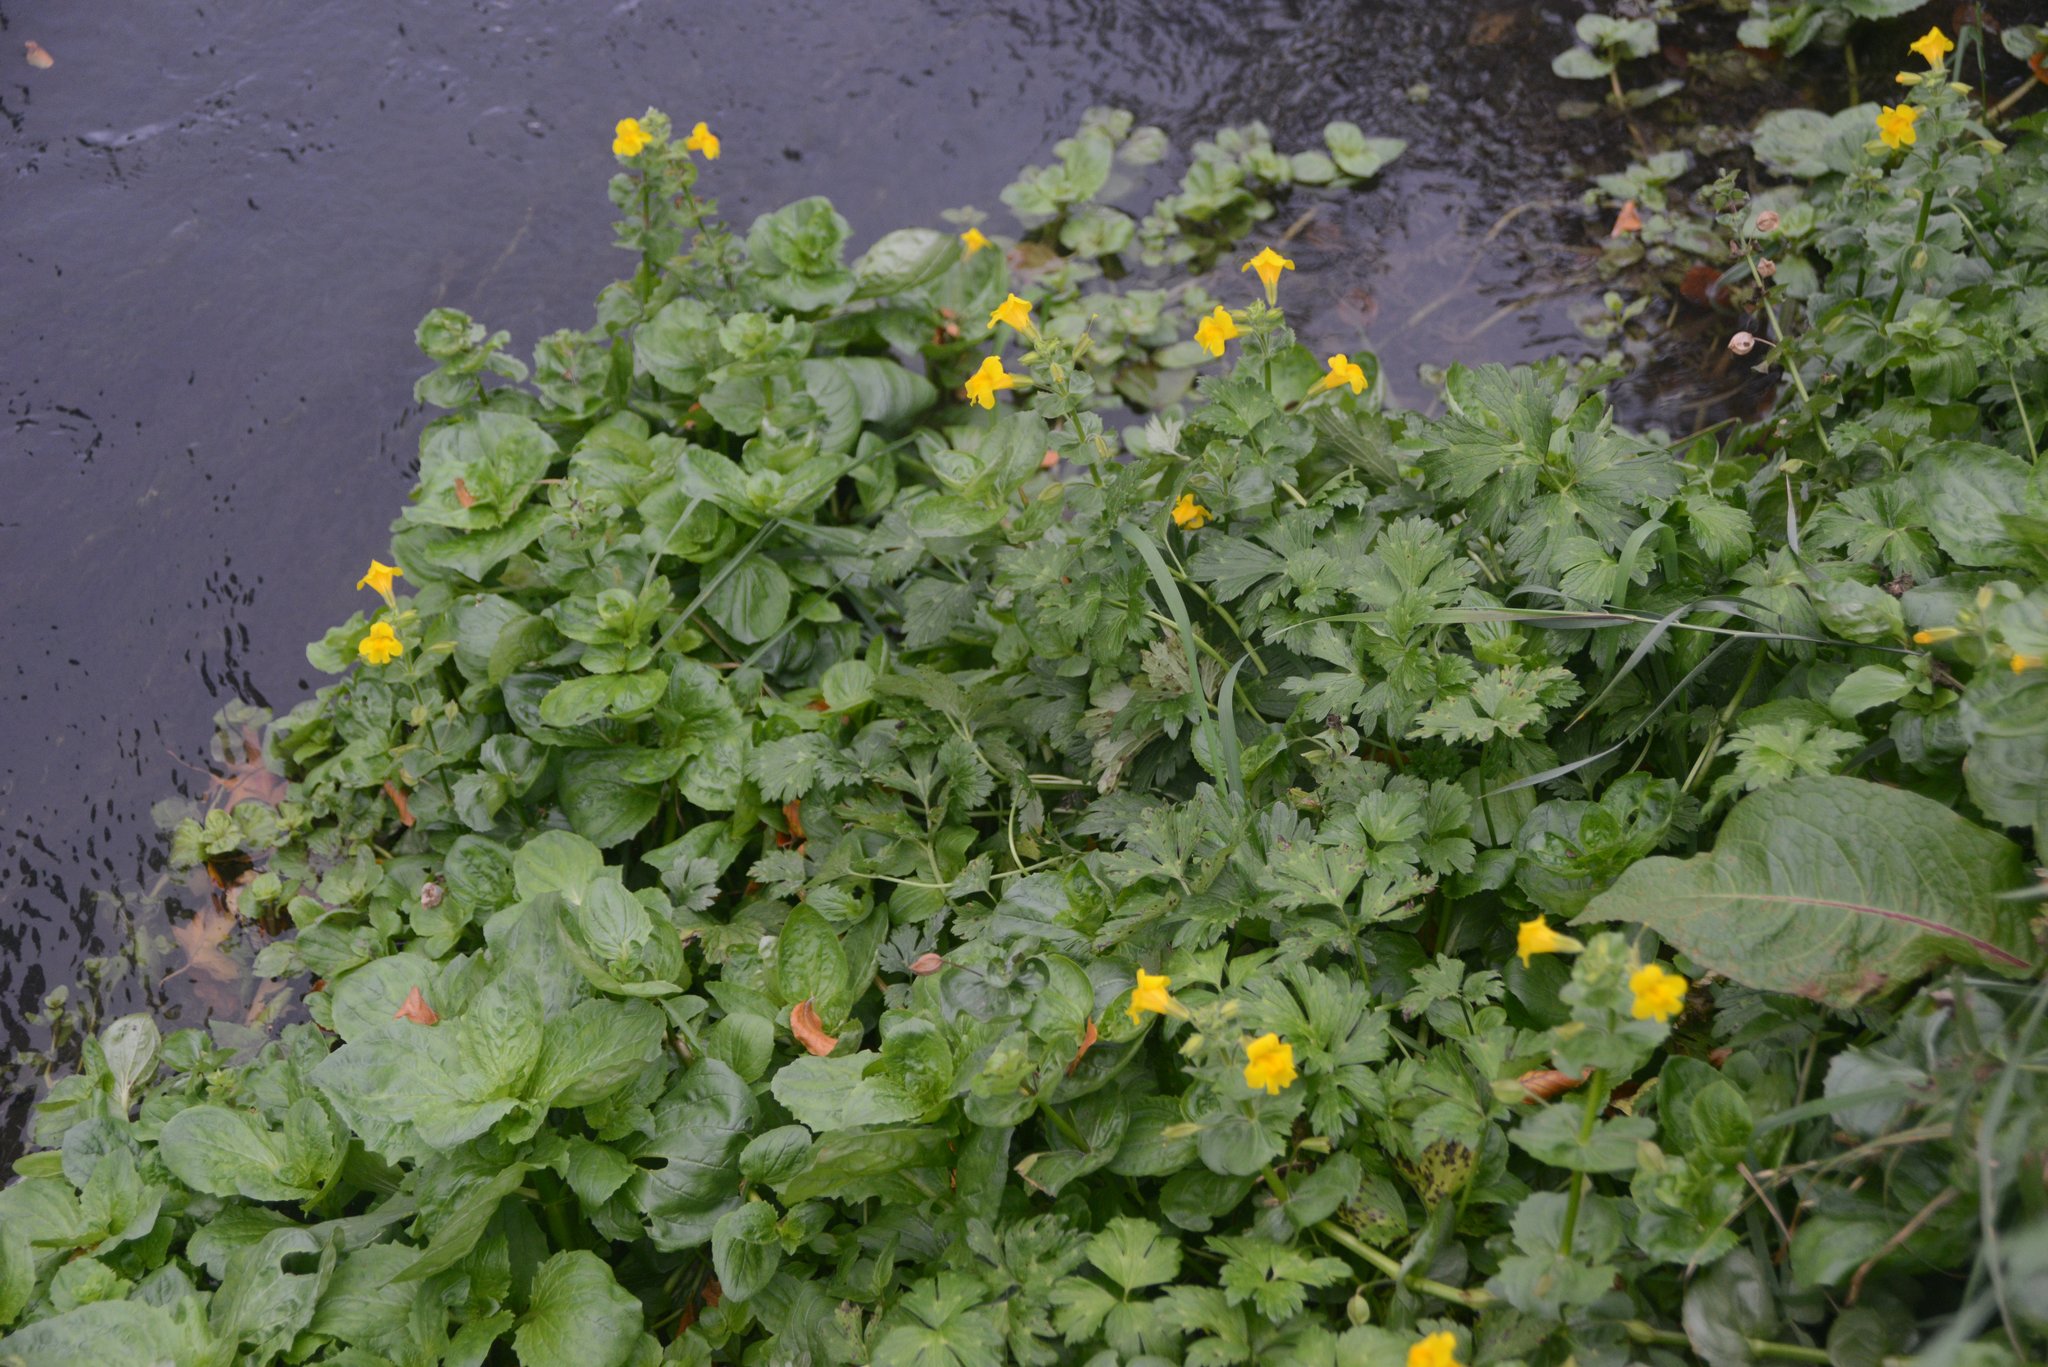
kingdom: Plantae
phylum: Tracheophyta
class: Magnoliopsida
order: Lamiales
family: Phrymaceae
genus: Erythranthe
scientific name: Erythranthe guttata
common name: Monkeyflower
